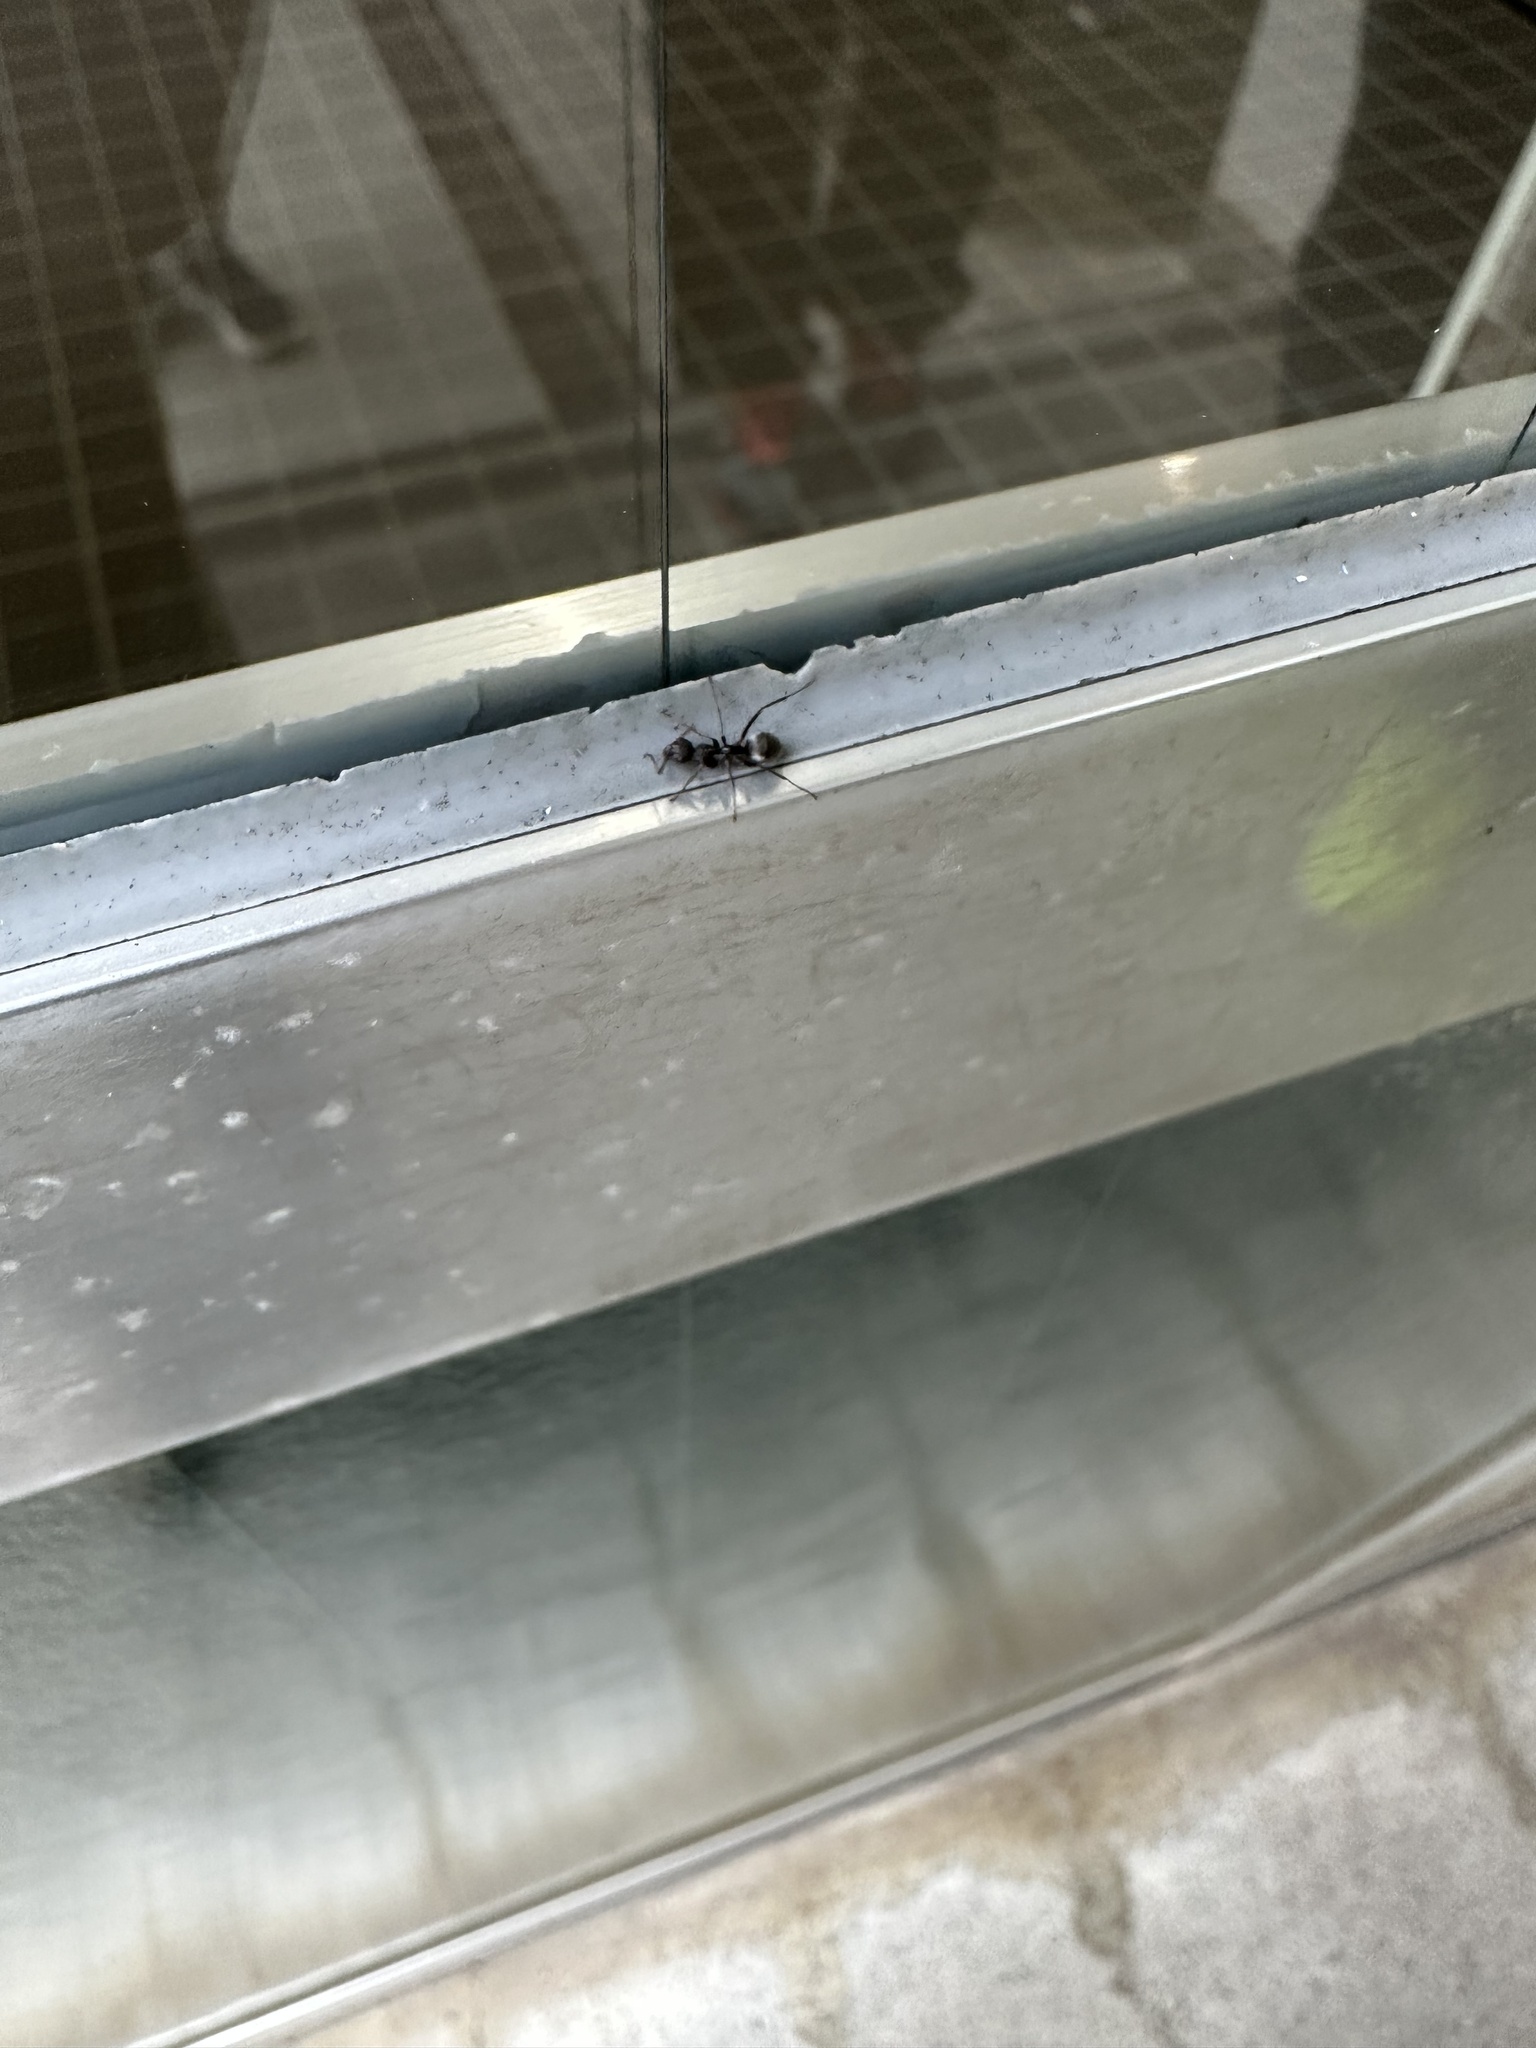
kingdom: Animalia
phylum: Arthropoda
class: Insecta
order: Hymenoptera
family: Formicidae
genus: Formica
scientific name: Formica japonica
